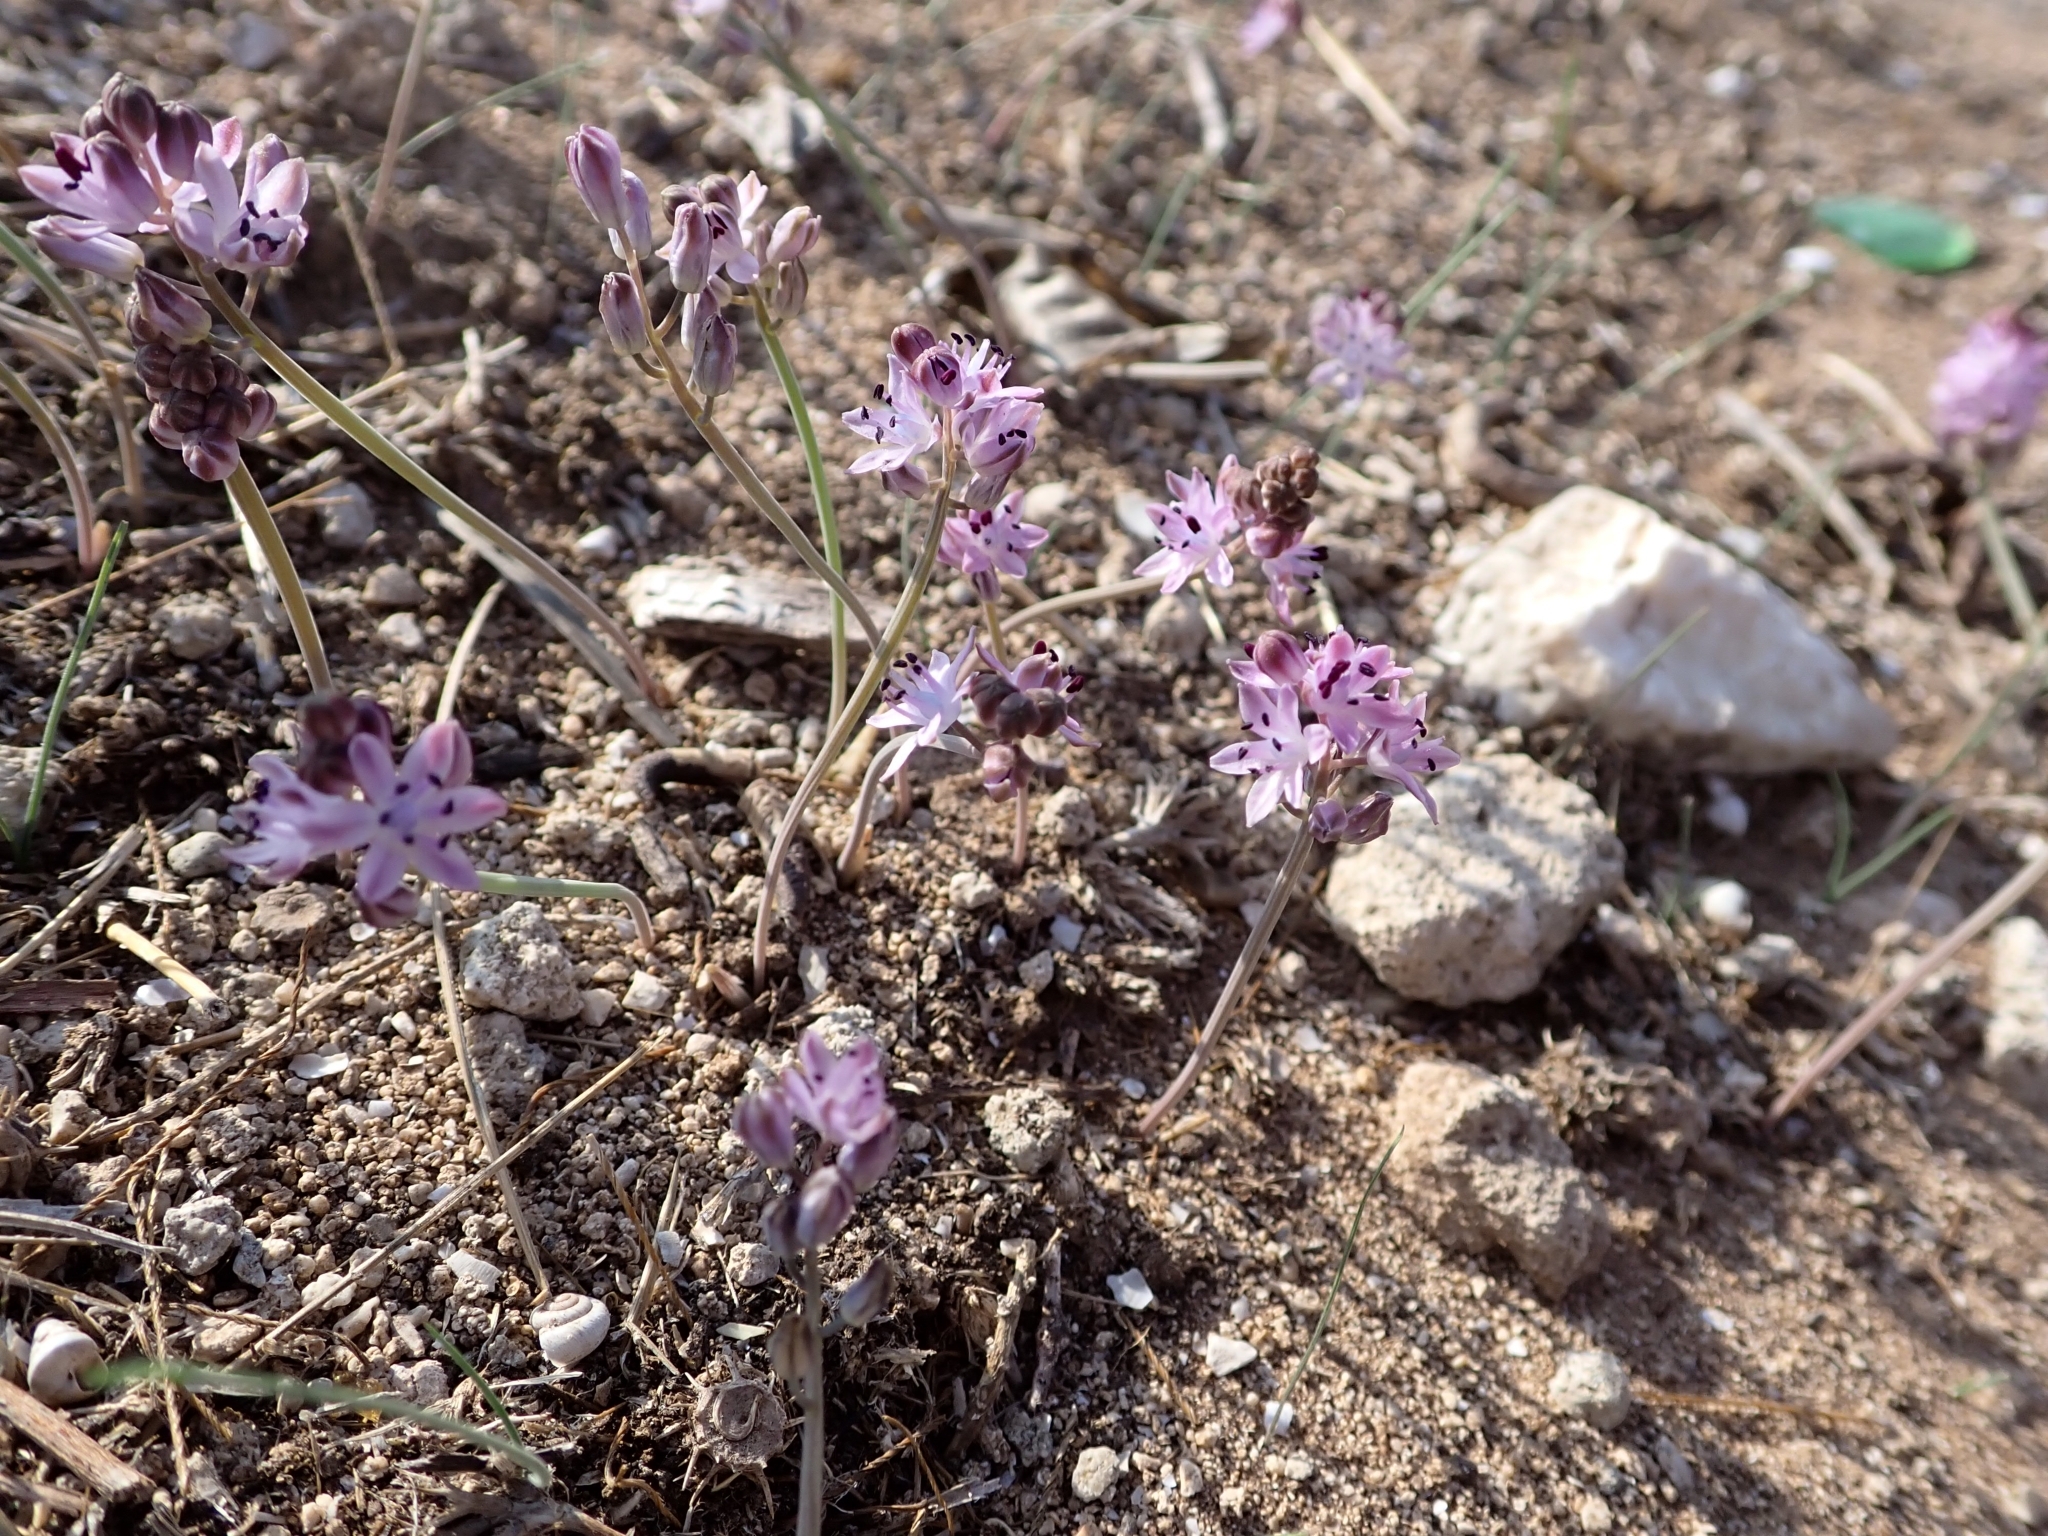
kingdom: Plantae
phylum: Tracheophyta
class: Liliopsida
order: Asparagales
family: Asparagaceae
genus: Prospero
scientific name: Prospero autumnale
